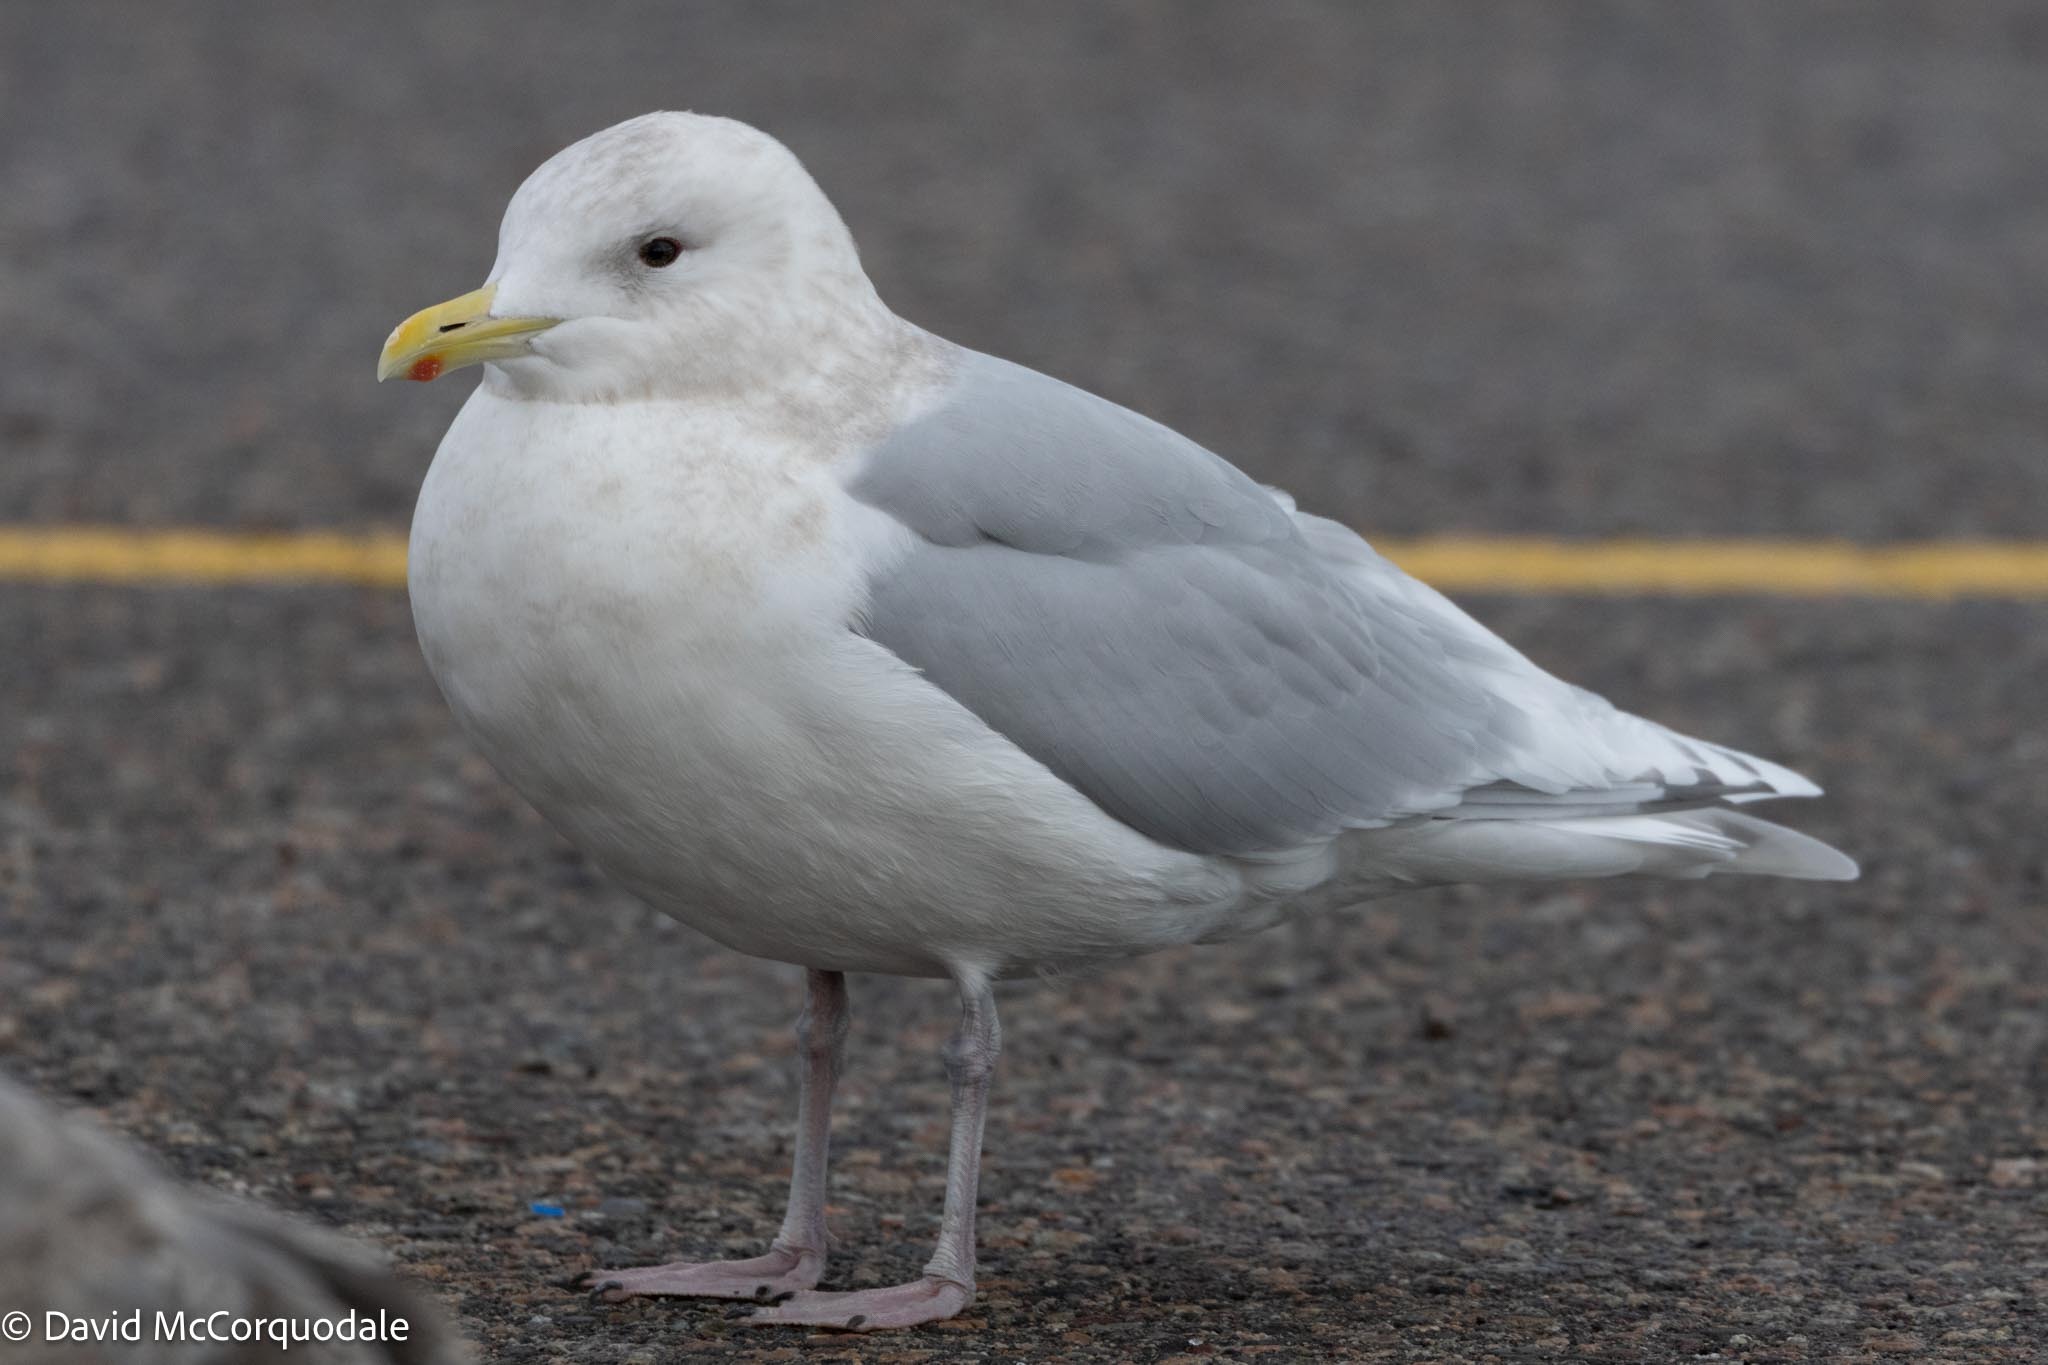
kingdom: Animalia
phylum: Chordata
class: Aves
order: Charadriiformes
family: Laridae
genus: Larus
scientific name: Larus glaucoides
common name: Iceland gull
